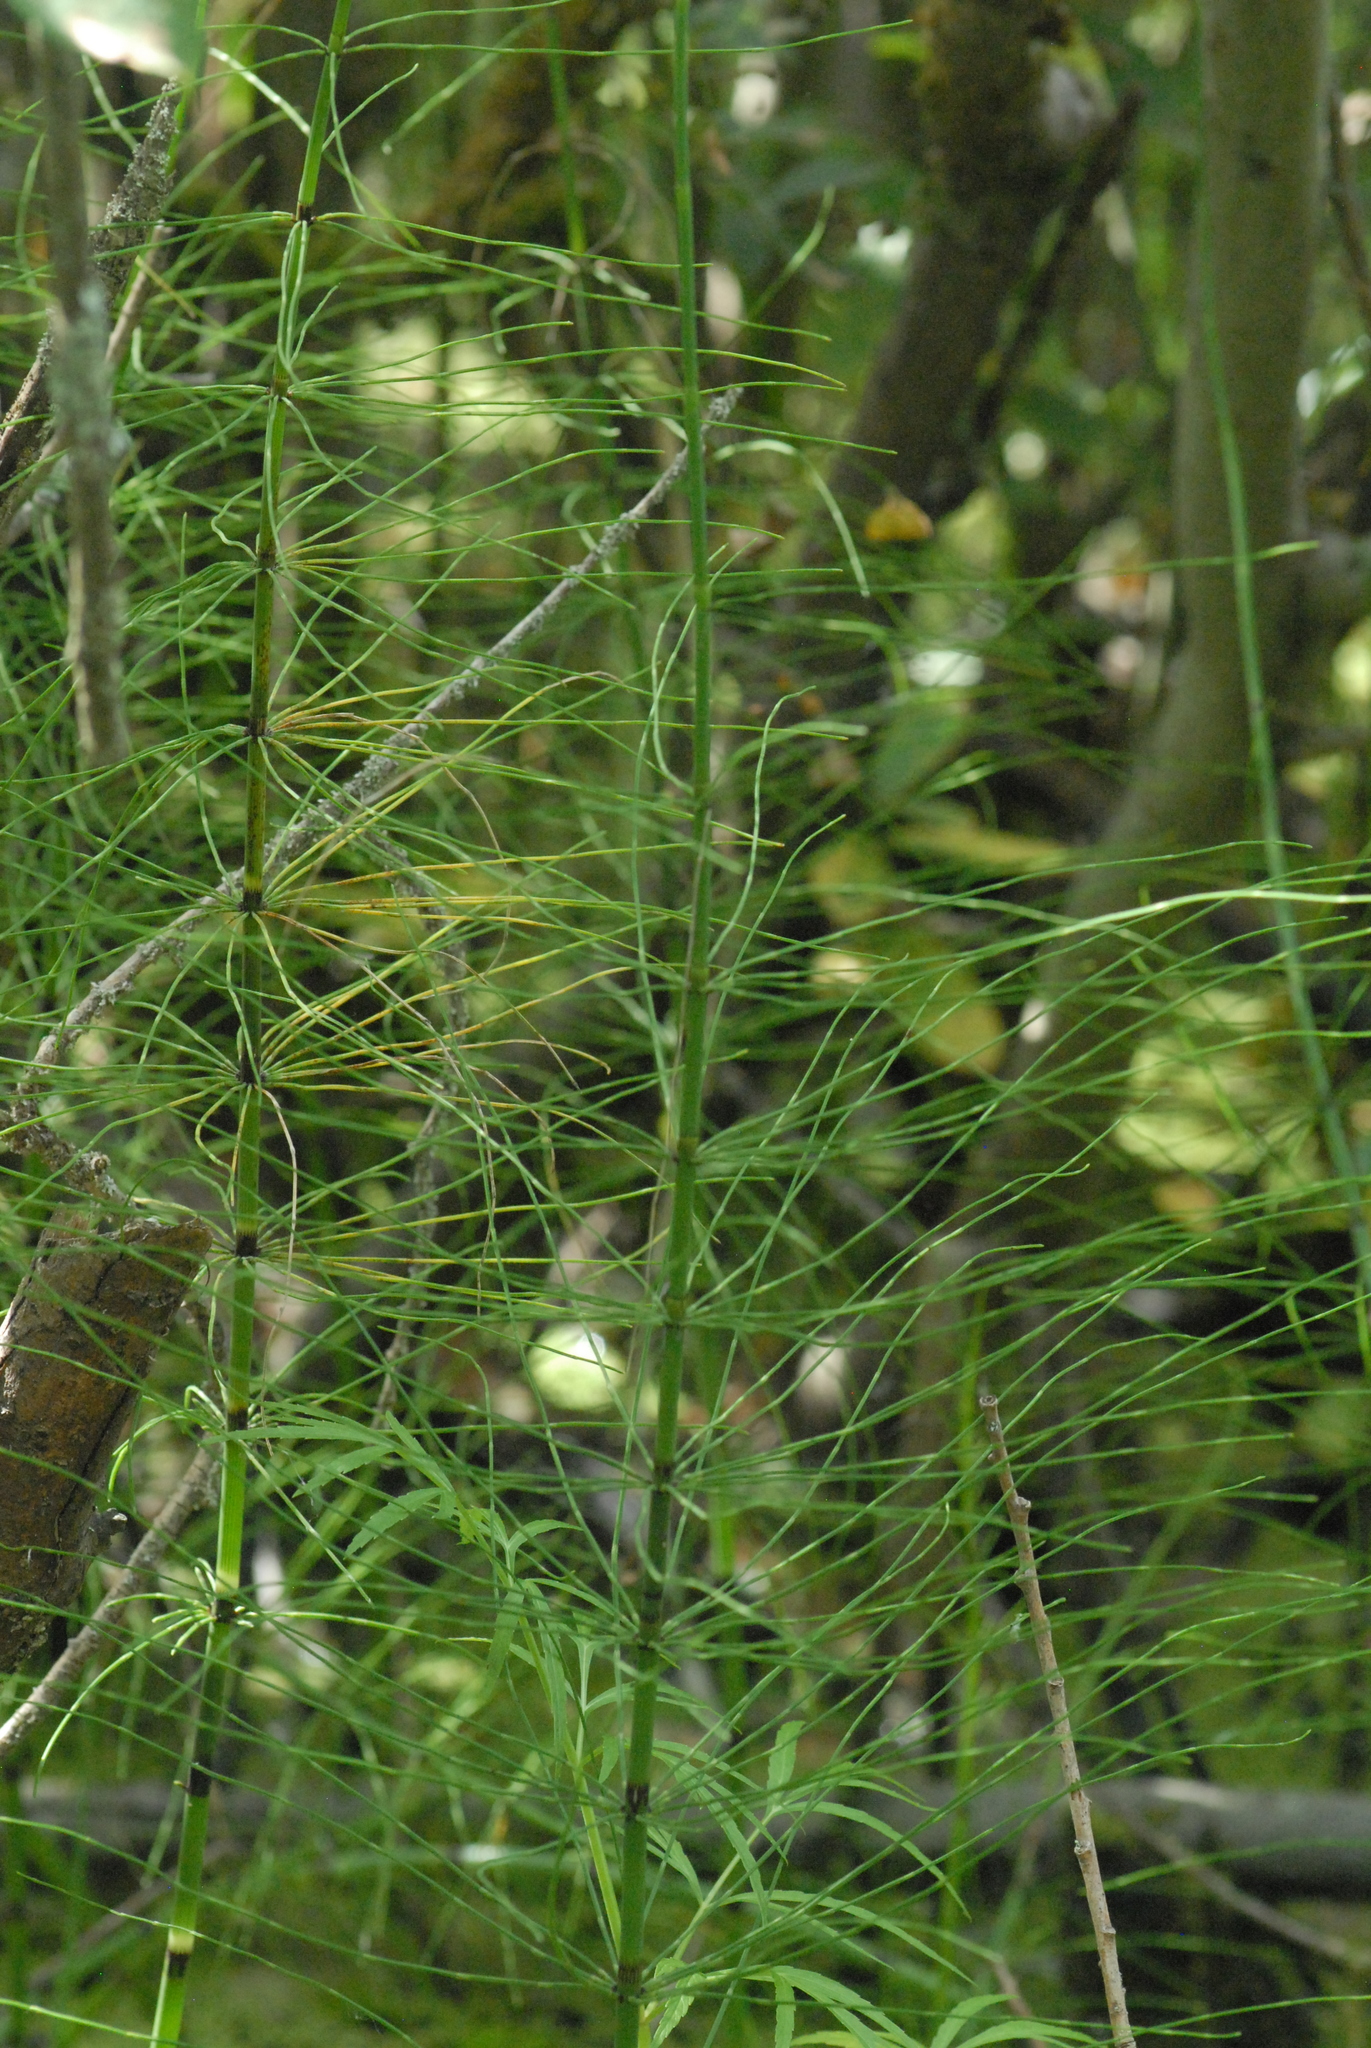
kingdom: Plantae
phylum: Tracheophyta
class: Polypodiopsida
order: Equisetales
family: Equisetaceae
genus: Equisetum
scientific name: Equisetum pratense
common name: Meadow horsetail
